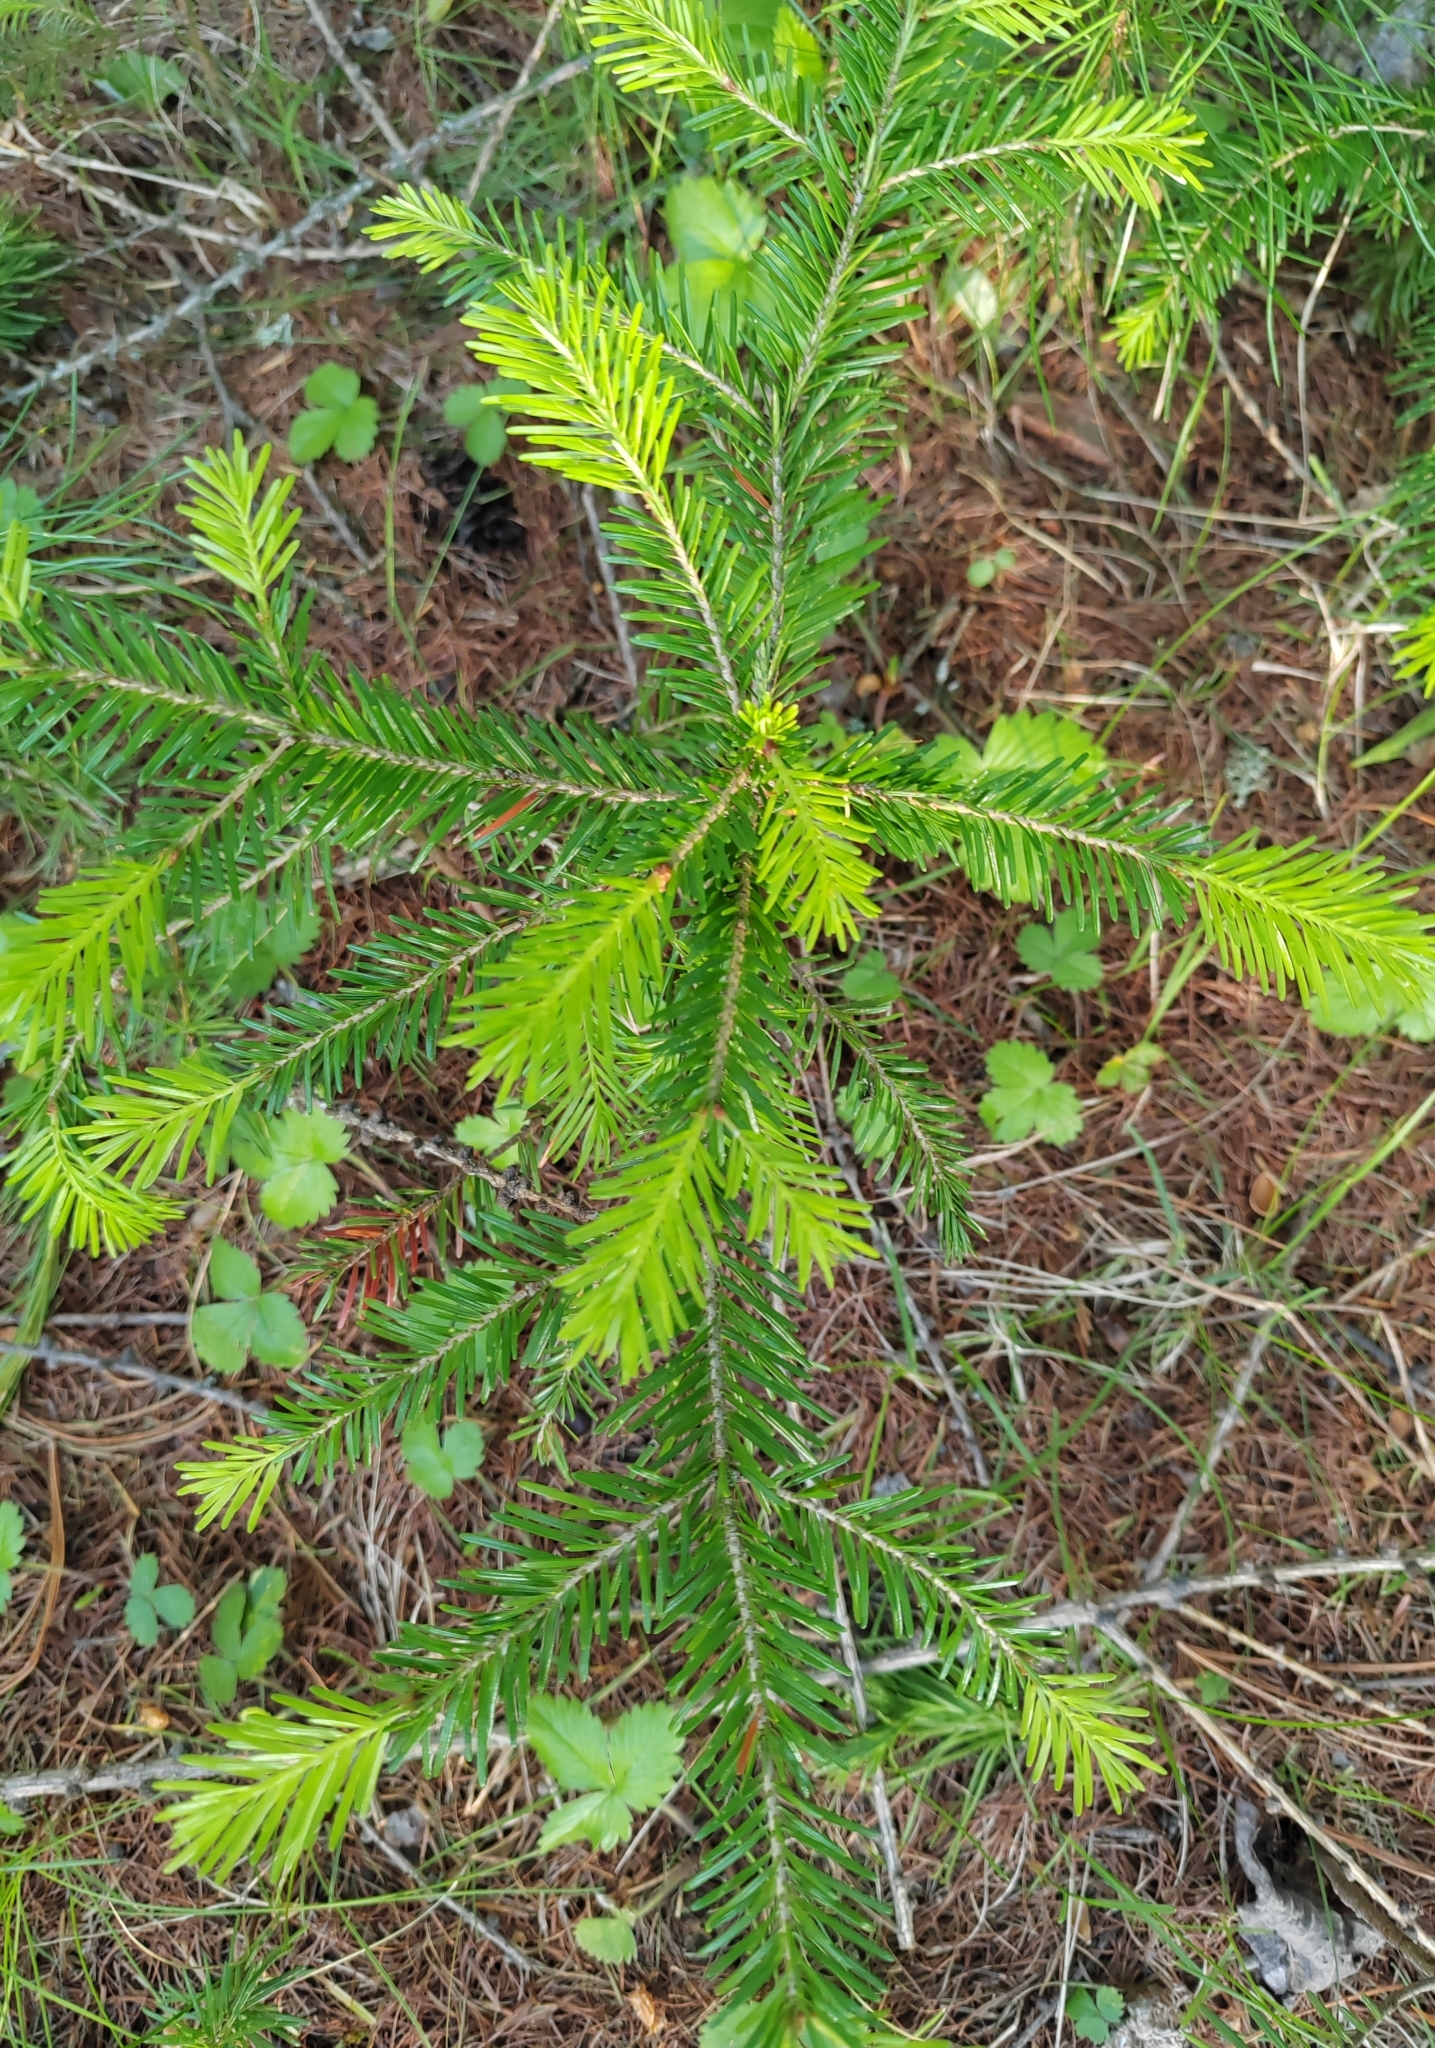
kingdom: Plantae
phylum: Tracheophyta
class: Pinopsida
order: Pinales
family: Pinaceae
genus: Abies
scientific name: Abies sibirica
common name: Siberian fir
